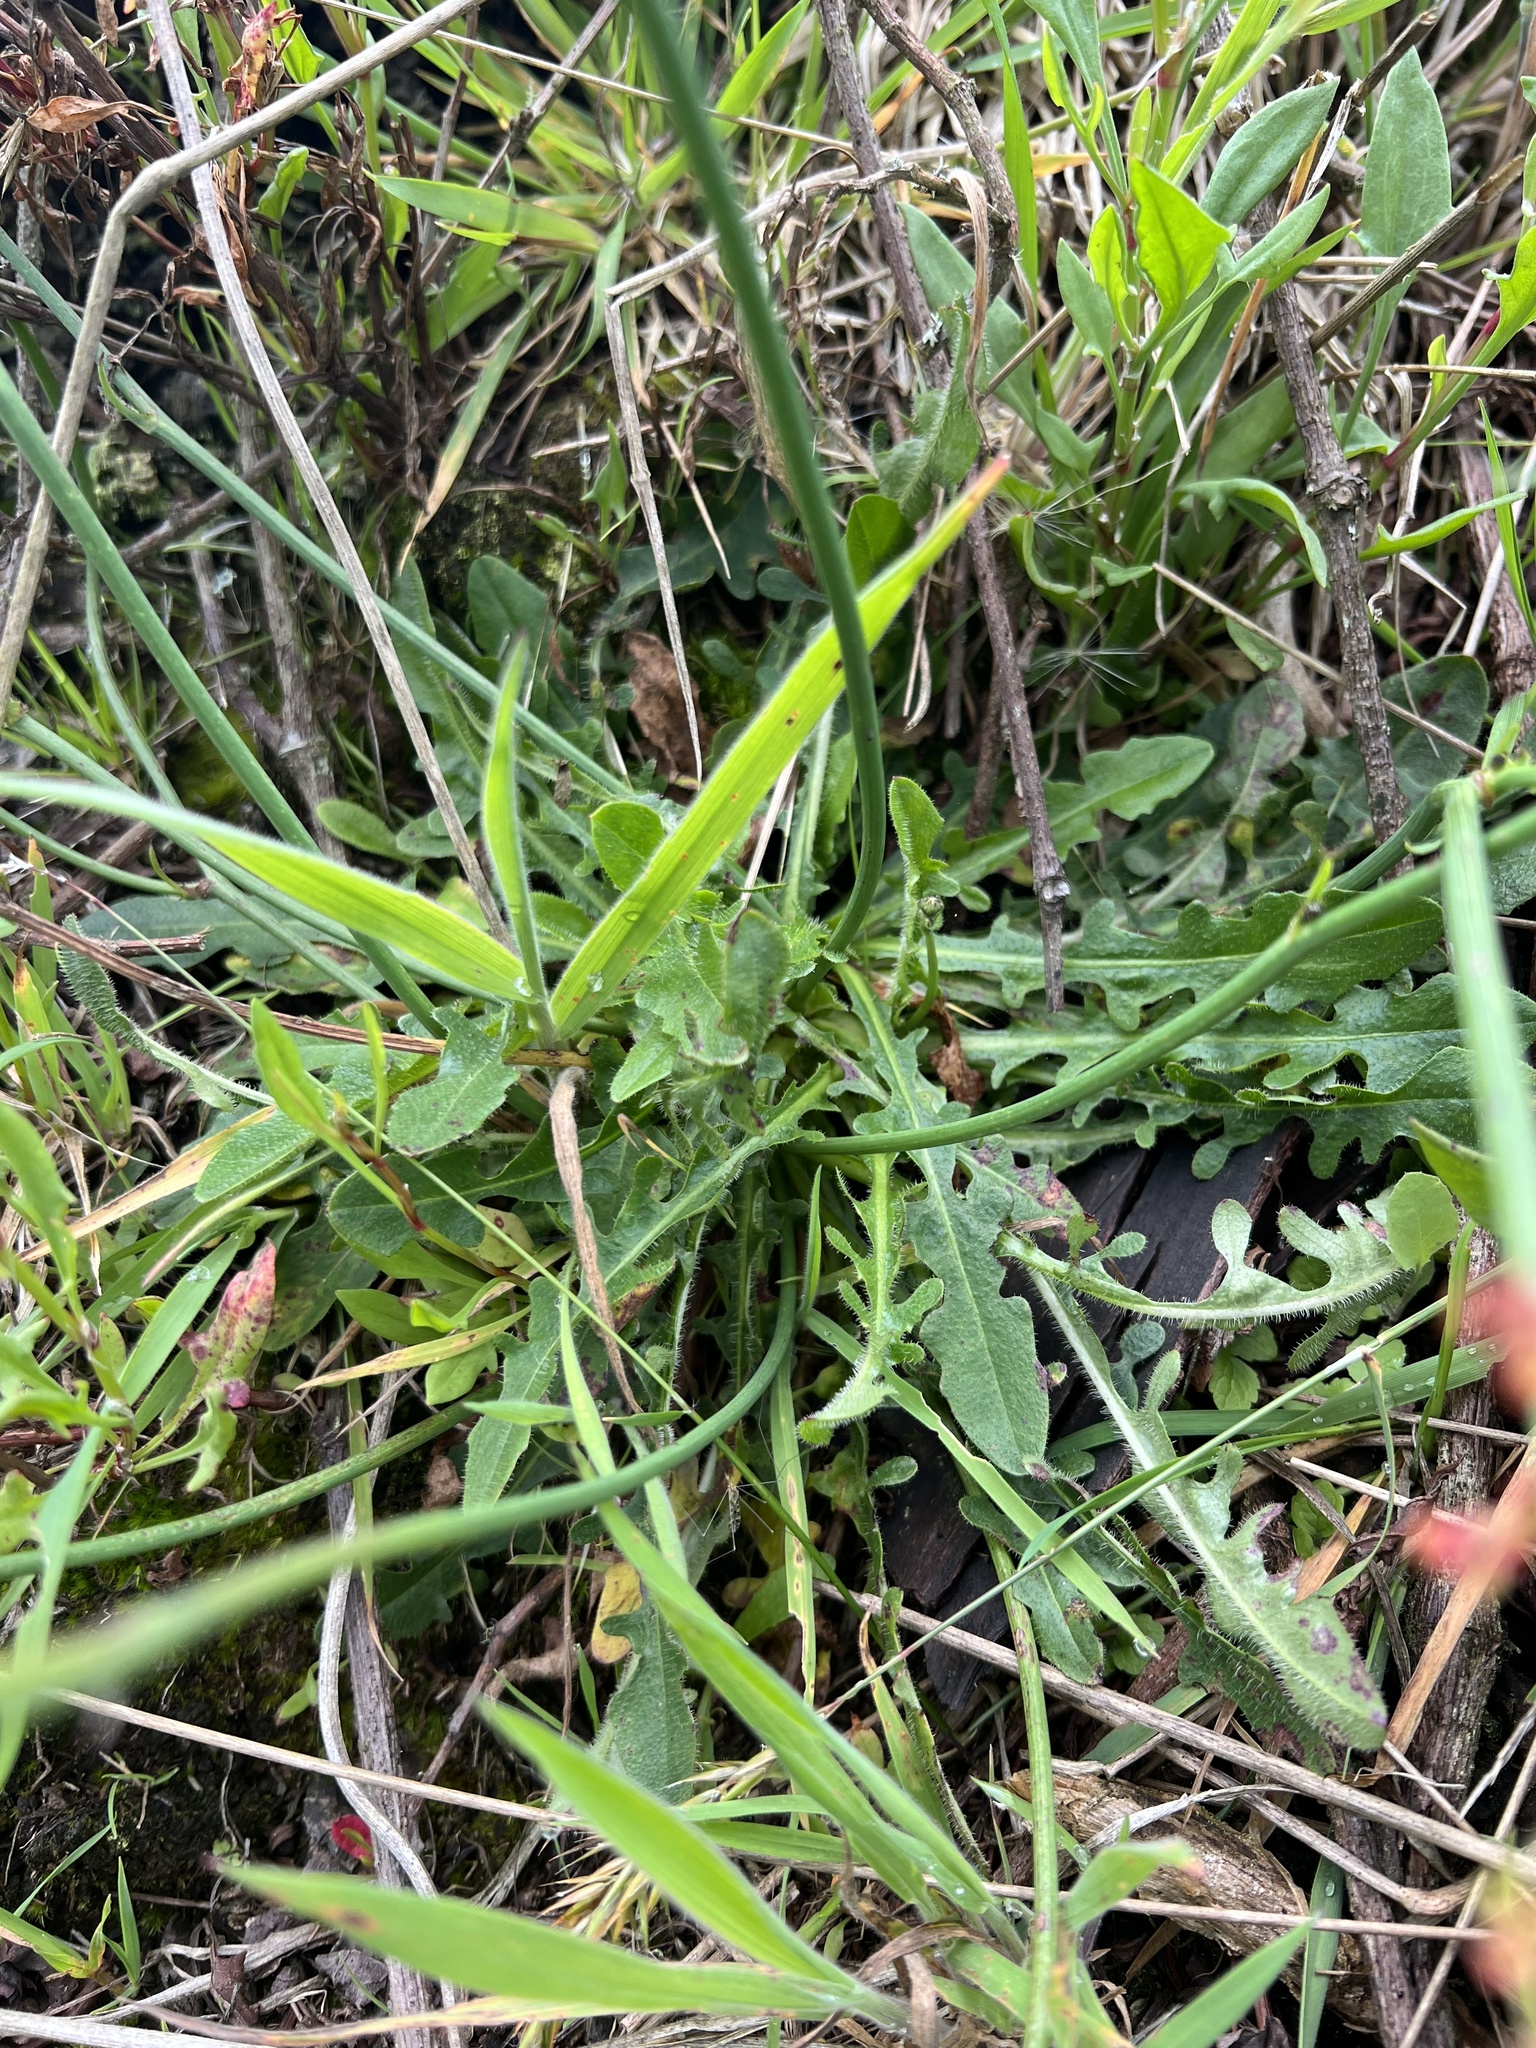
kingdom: Plantae
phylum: Tracheophyta
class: Magnoliopsida
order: Asterales
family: Asteraceae
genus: Hypochaeris
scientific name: Hypochaeris radicata
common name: Flatweed
